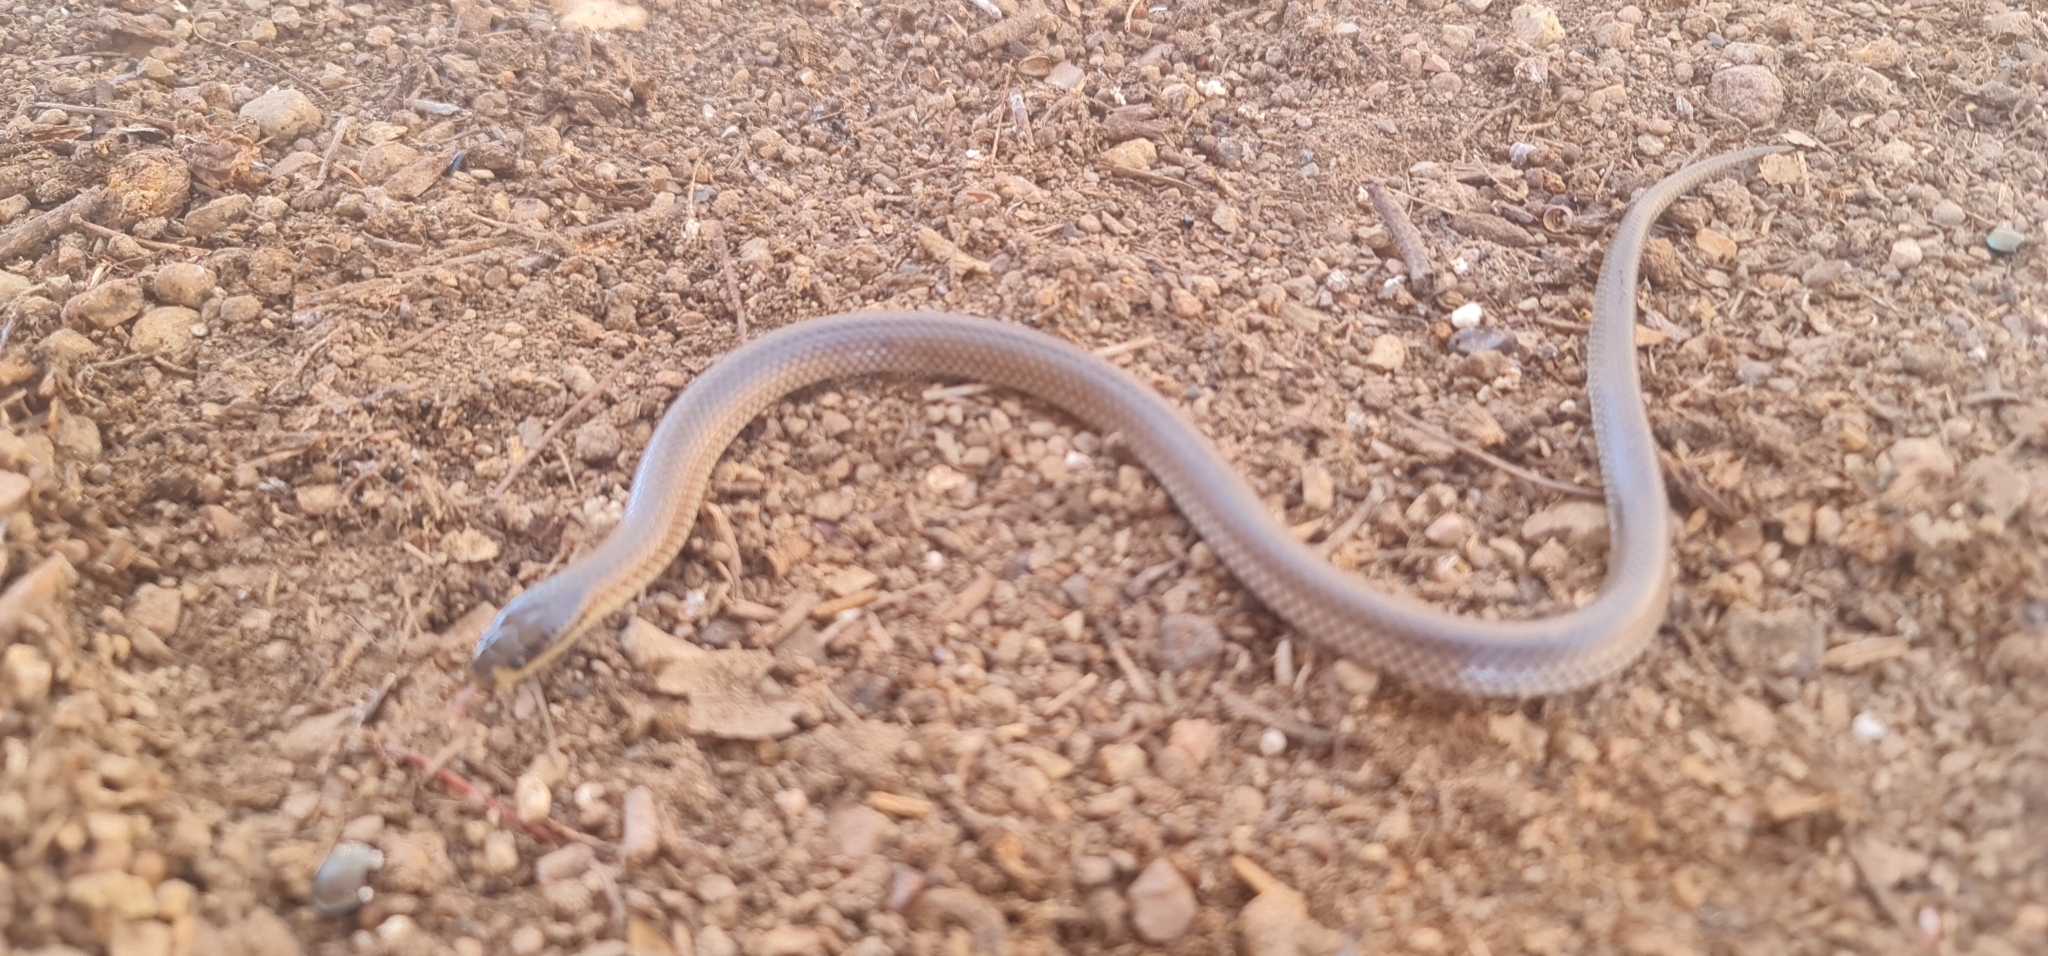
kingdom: Animalia
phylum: Chordata
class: Squamata
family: Elapidae
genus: Suta
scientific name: Suta dwyeri
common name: Variable black-naped snake
